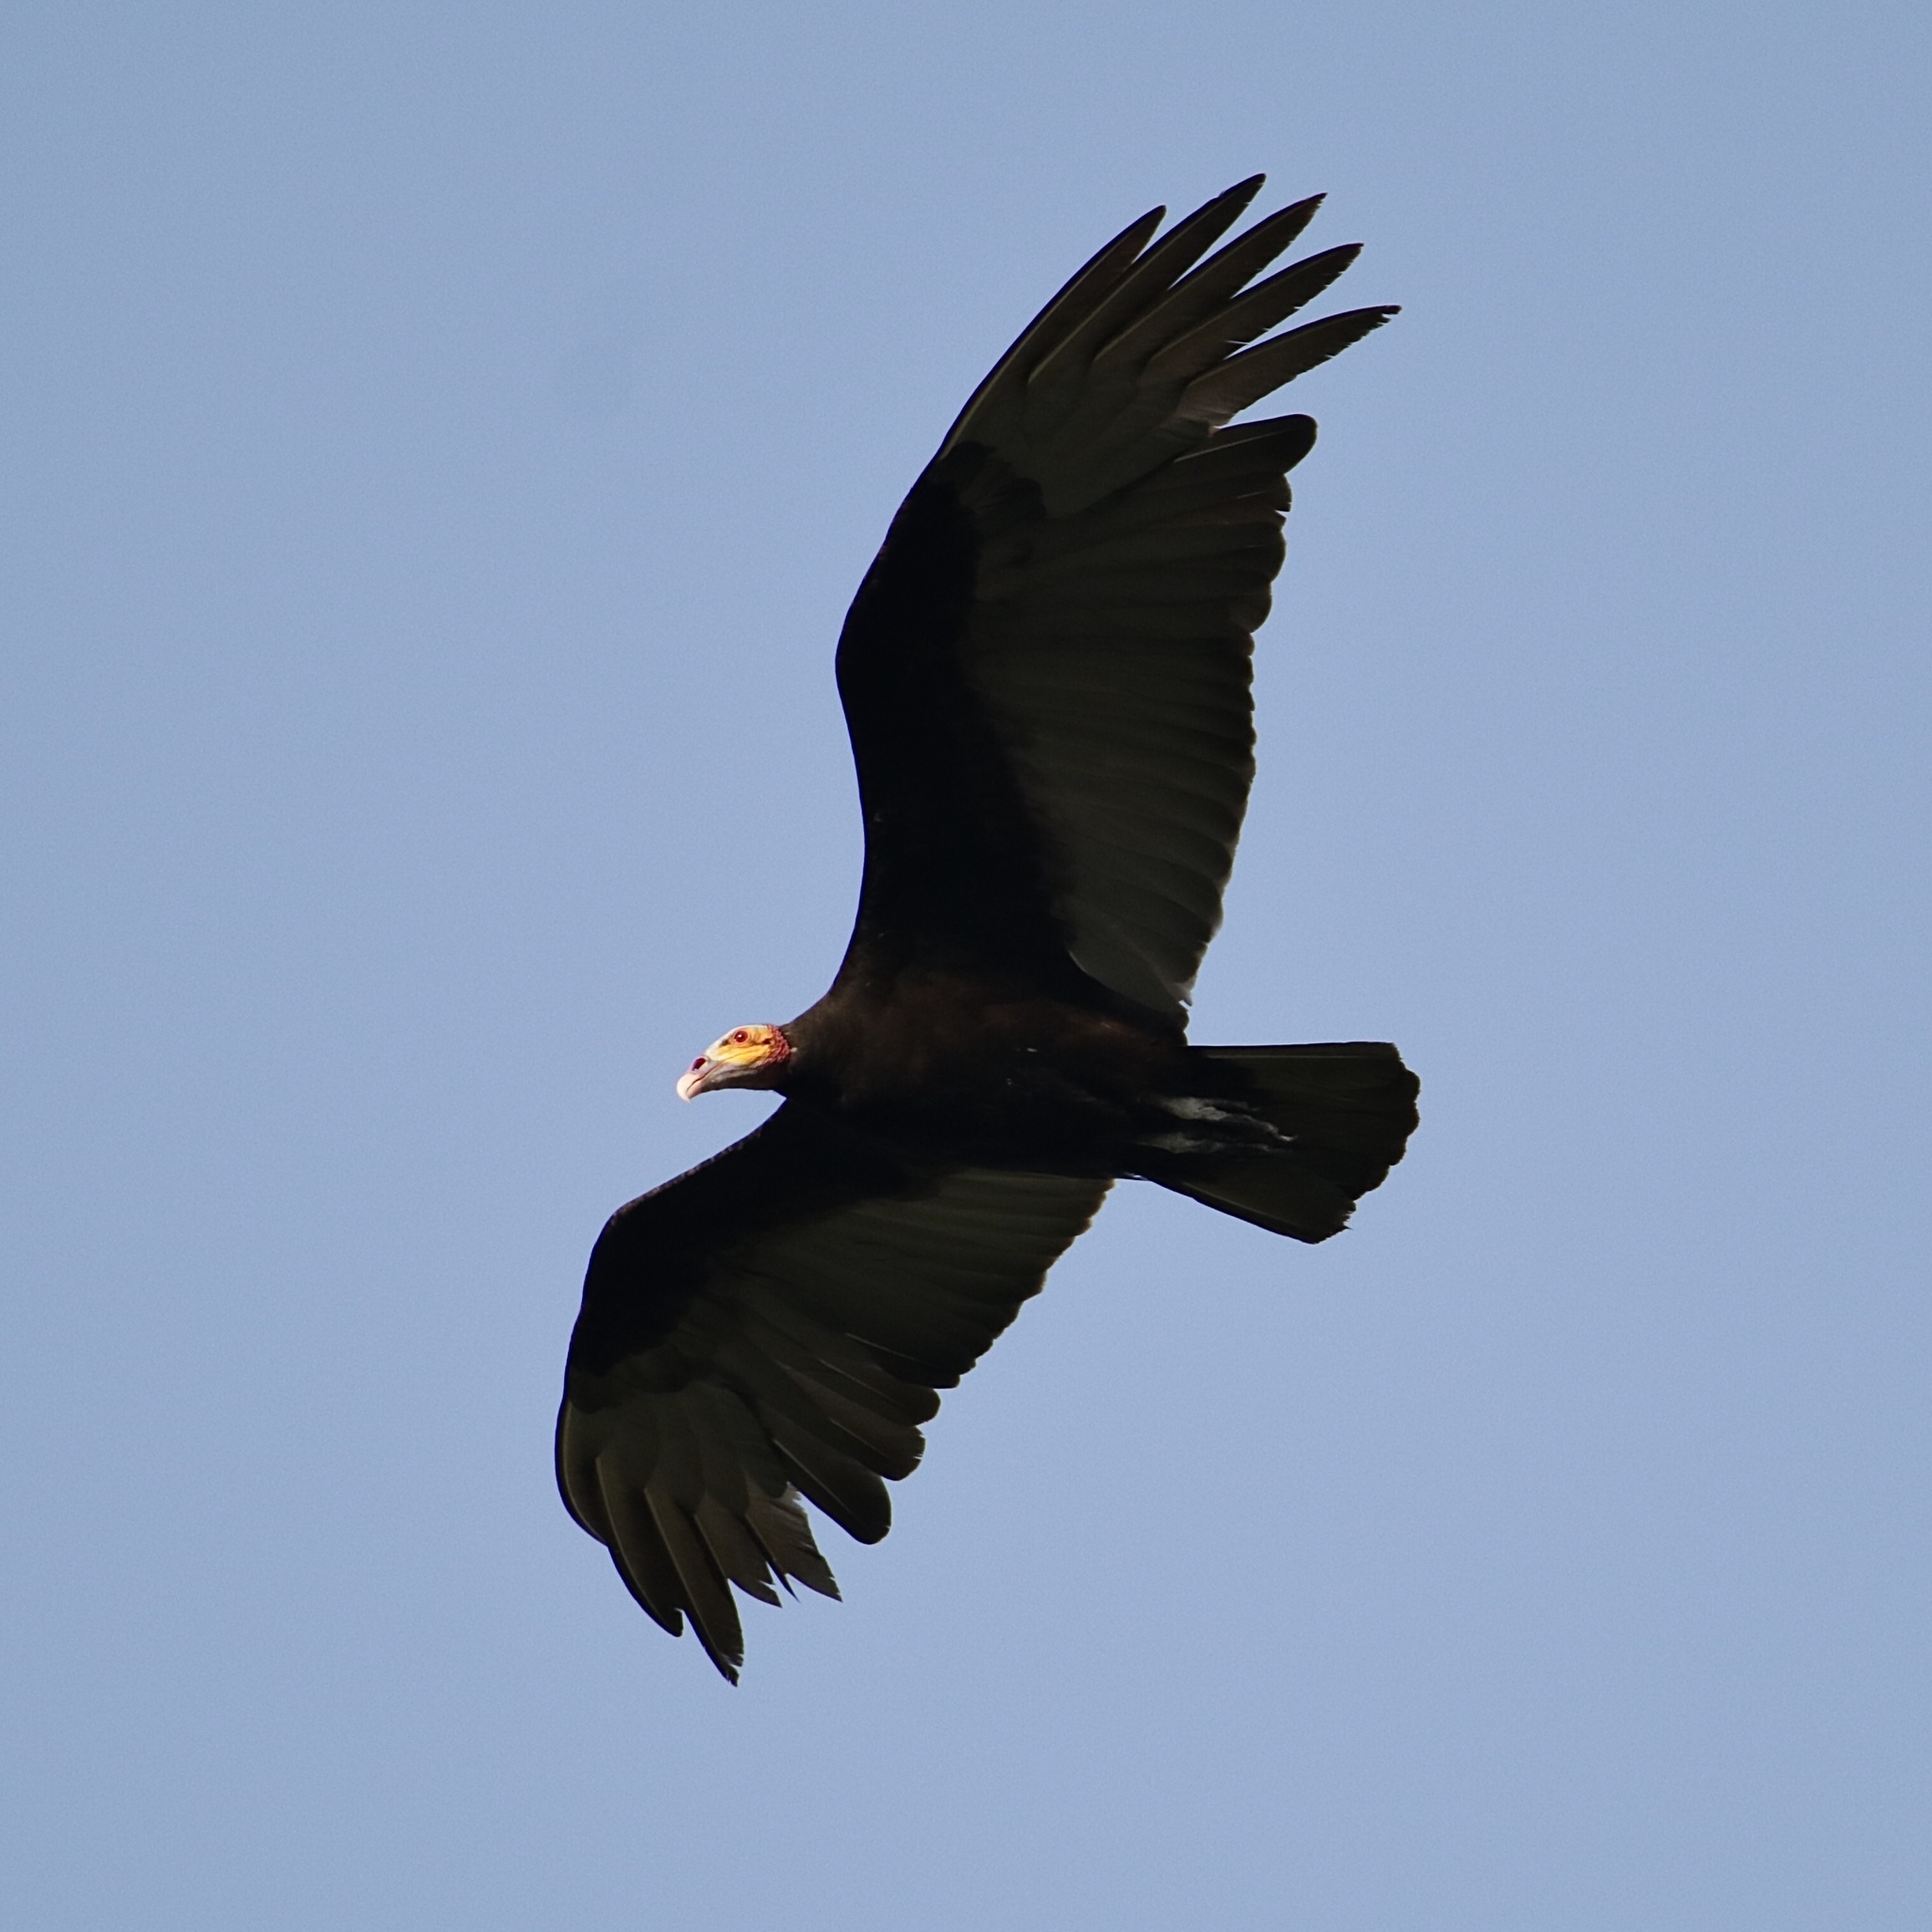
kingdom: Animalia
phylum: Chordata
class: Aves
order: Accipitriformes
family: Cathartidae
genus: Cathartes
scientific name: Cathartes burrovianus
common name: Lesser yellow-headed vulture
